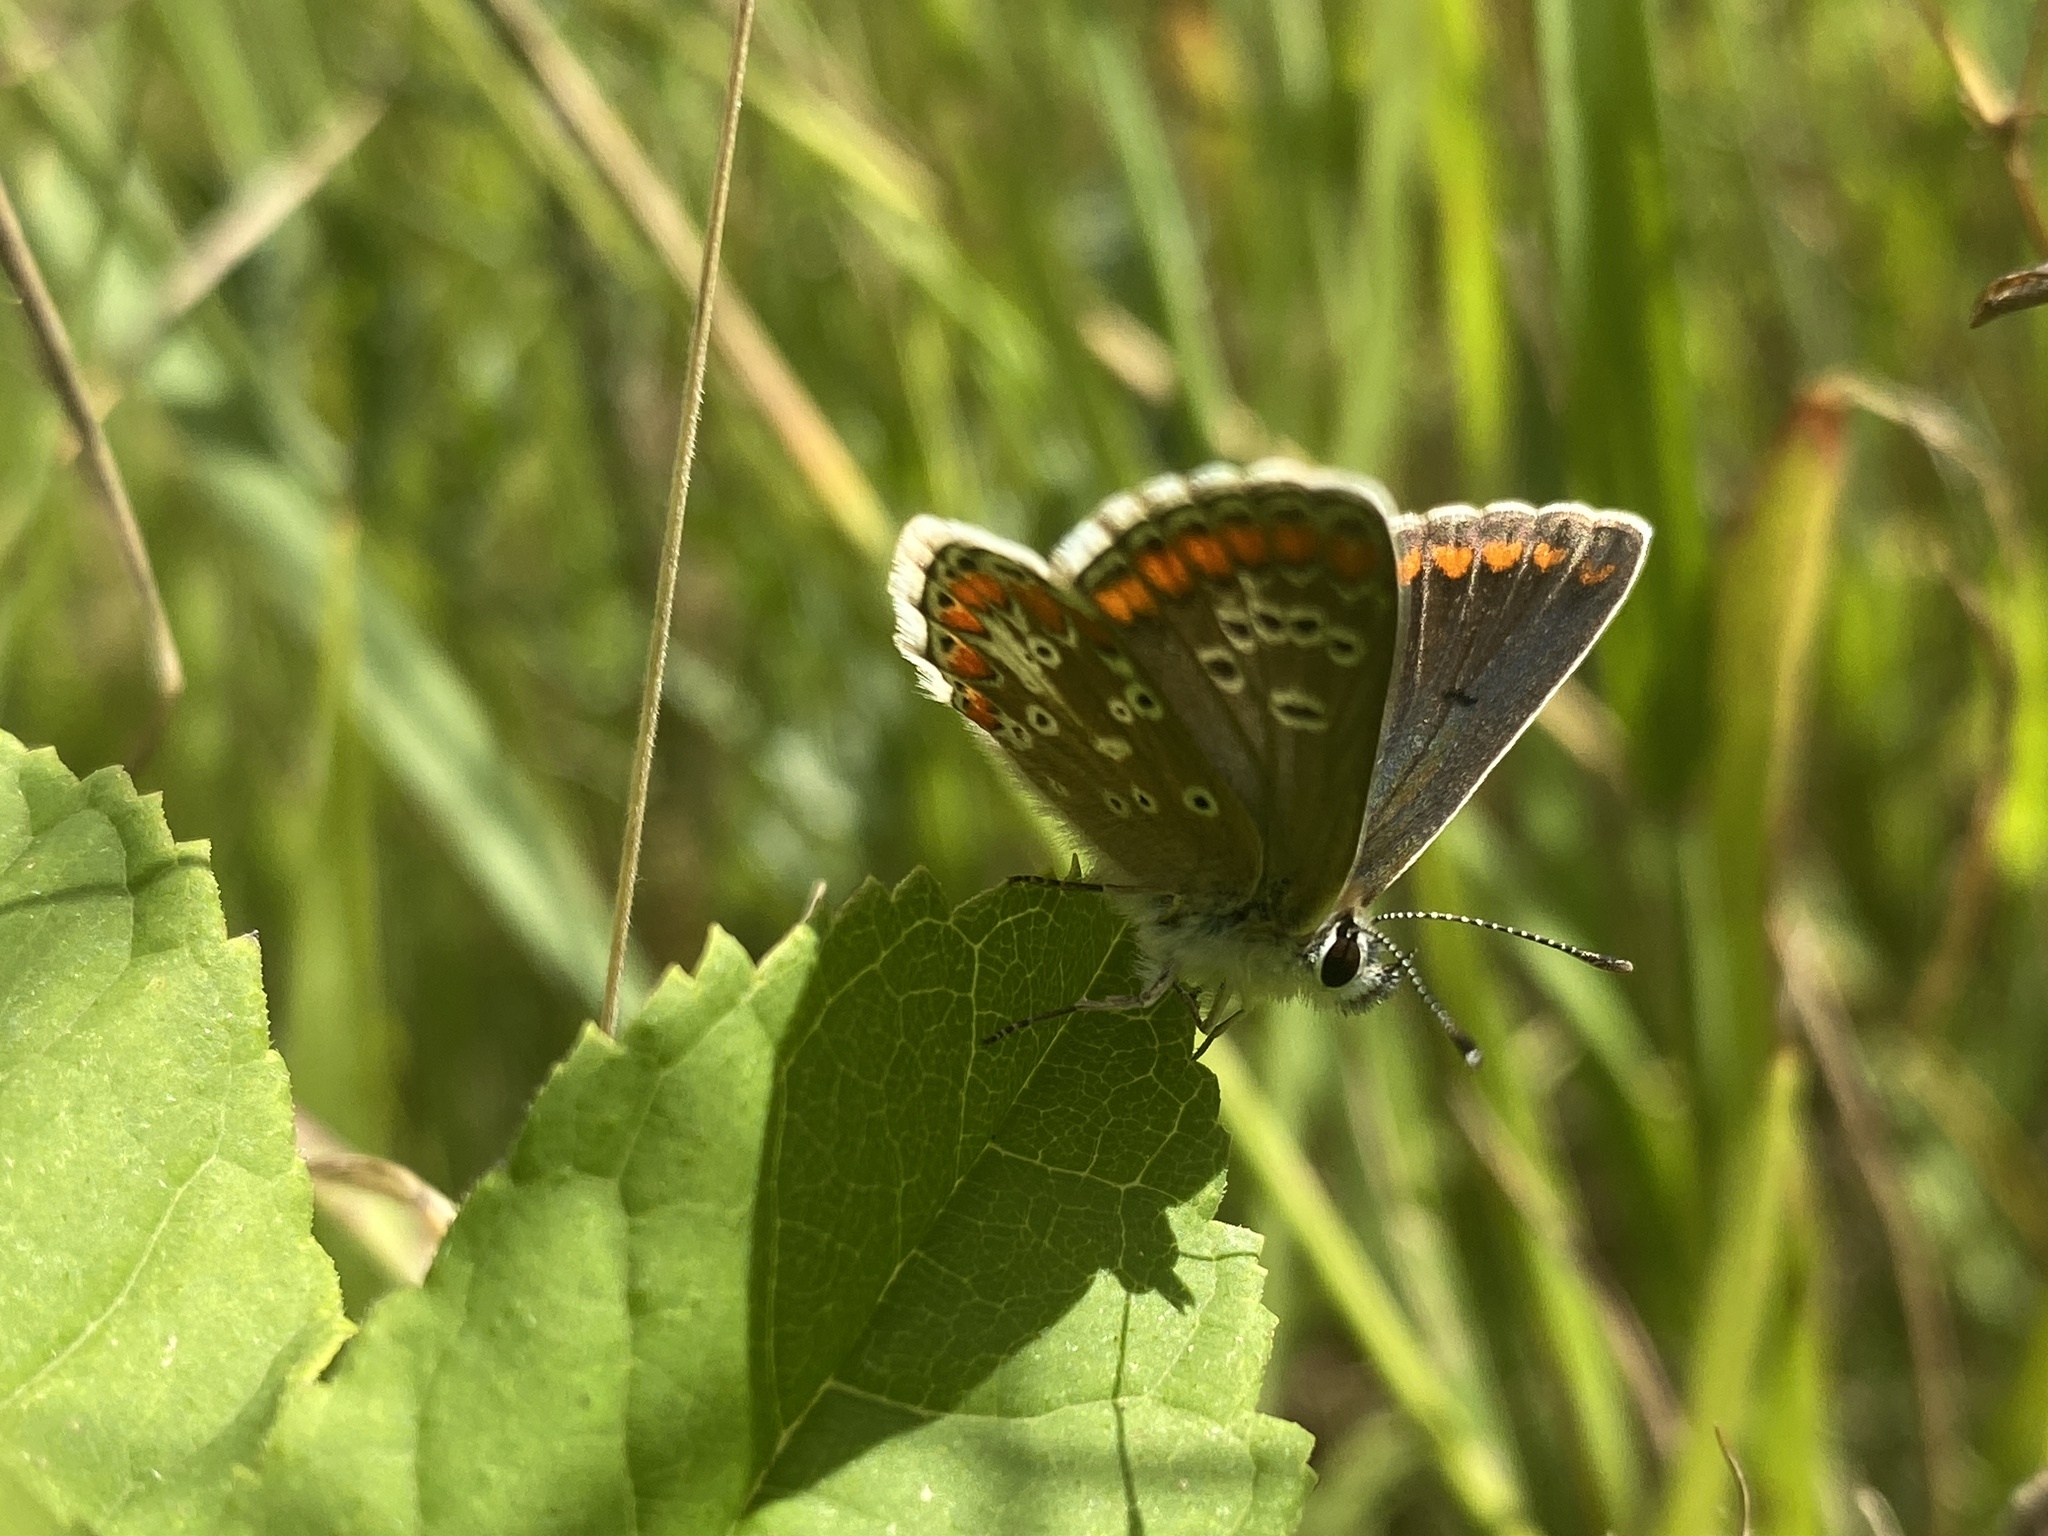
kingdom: Animalia
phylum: Arthropoda
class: Insecta
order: Lepidoptera
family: Lycaenidae
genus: Aricia
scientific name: Aricia agestis
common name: Brown argus
